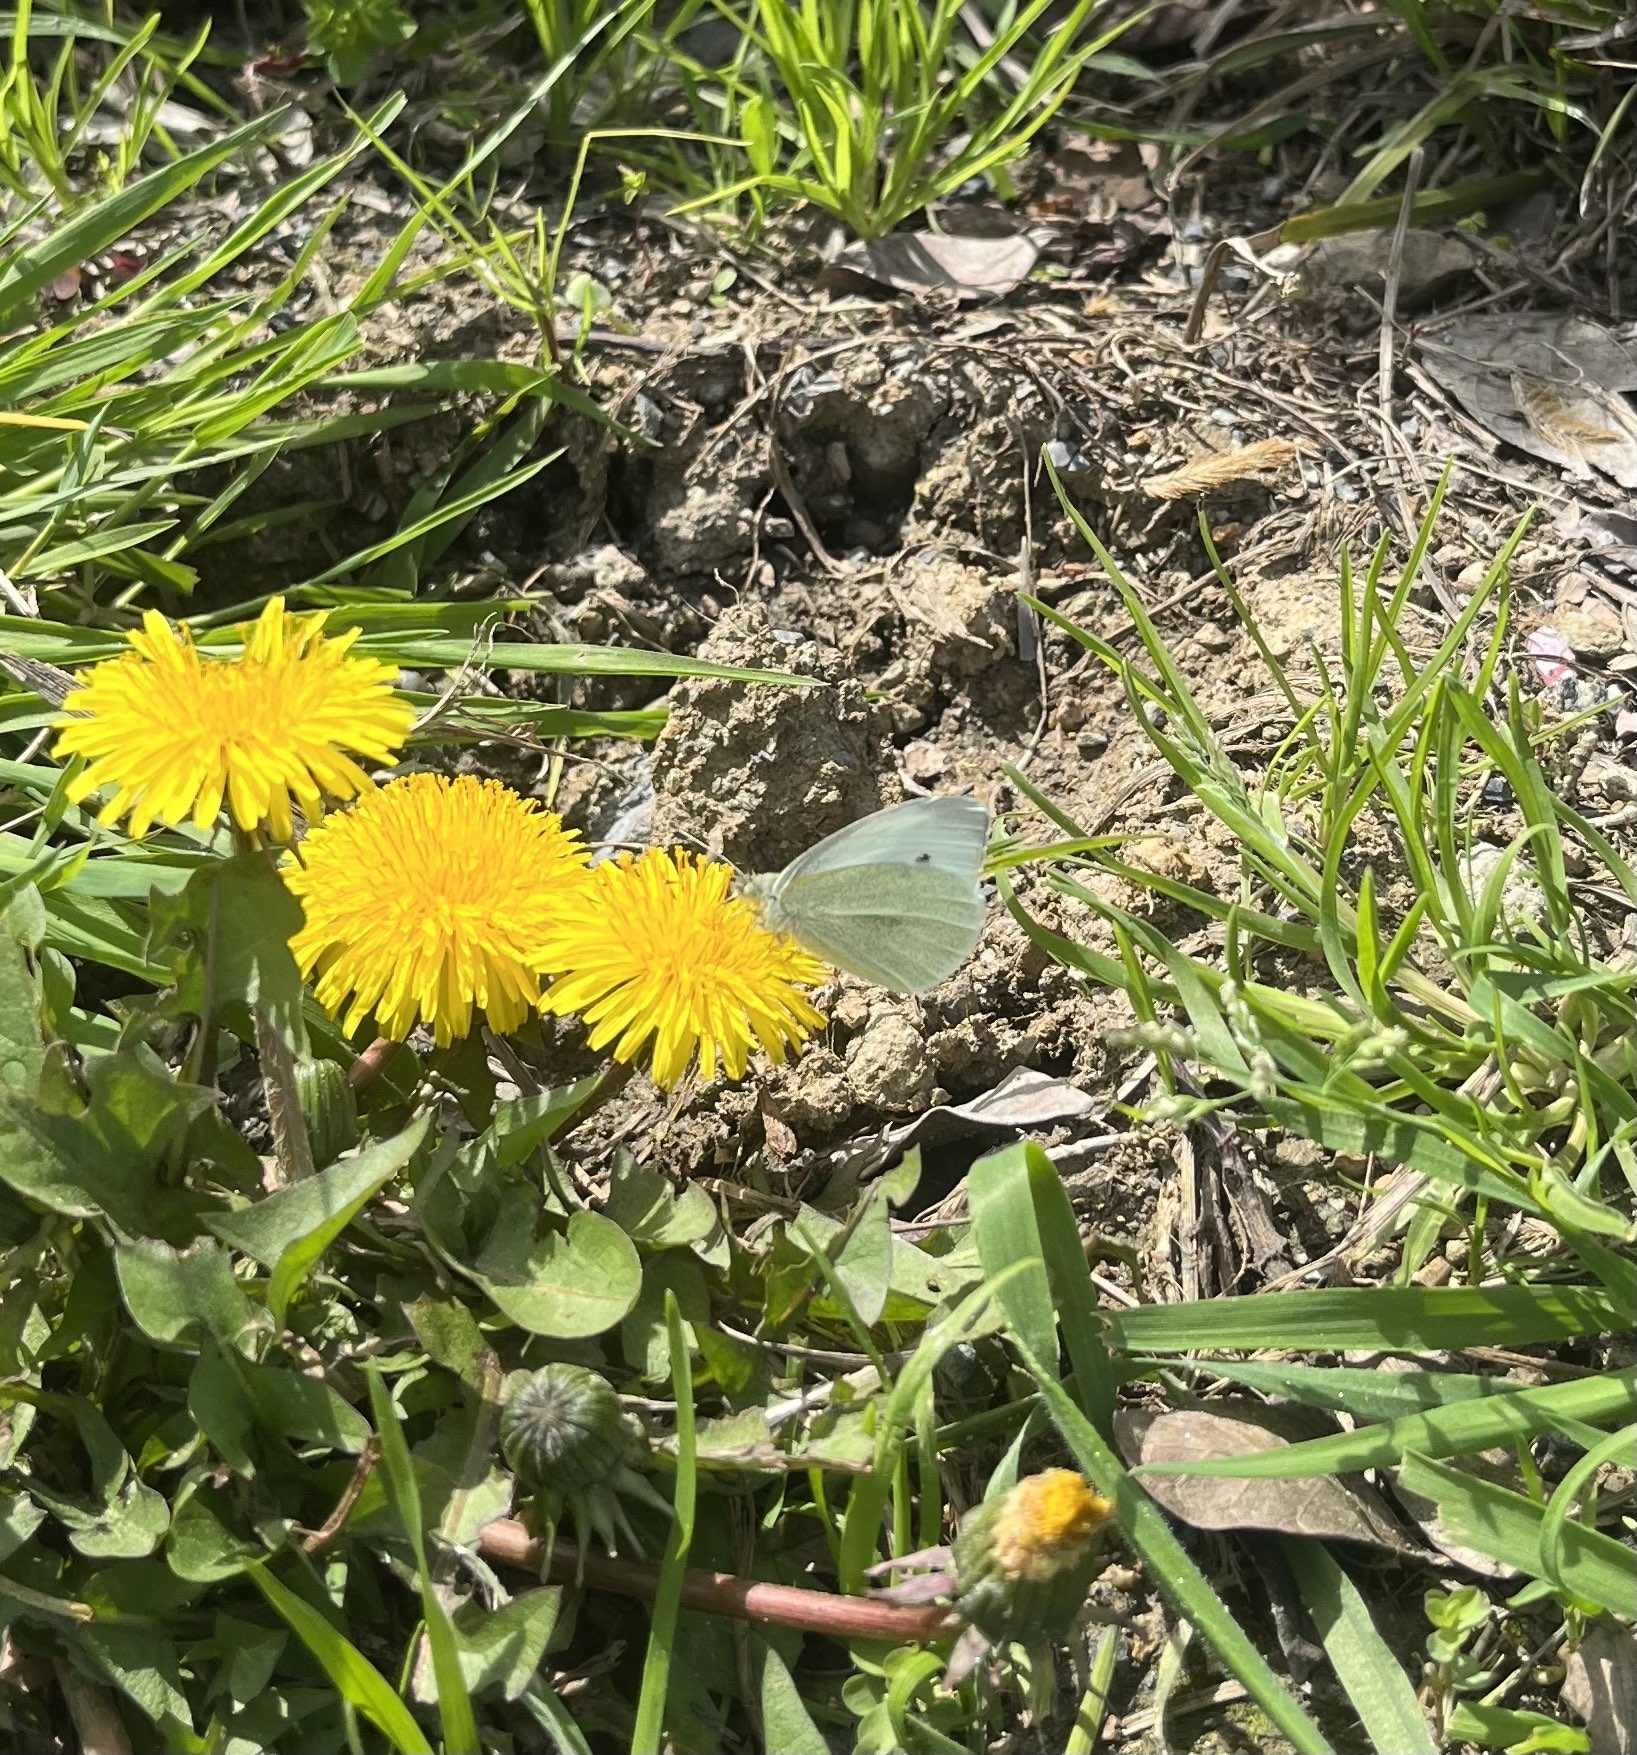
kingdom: Animalia
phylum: Arthropoda
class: Insecta
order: Lepidoptera
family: Pieridae
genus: Pieris
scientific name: Pieris rapae
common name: Small white
